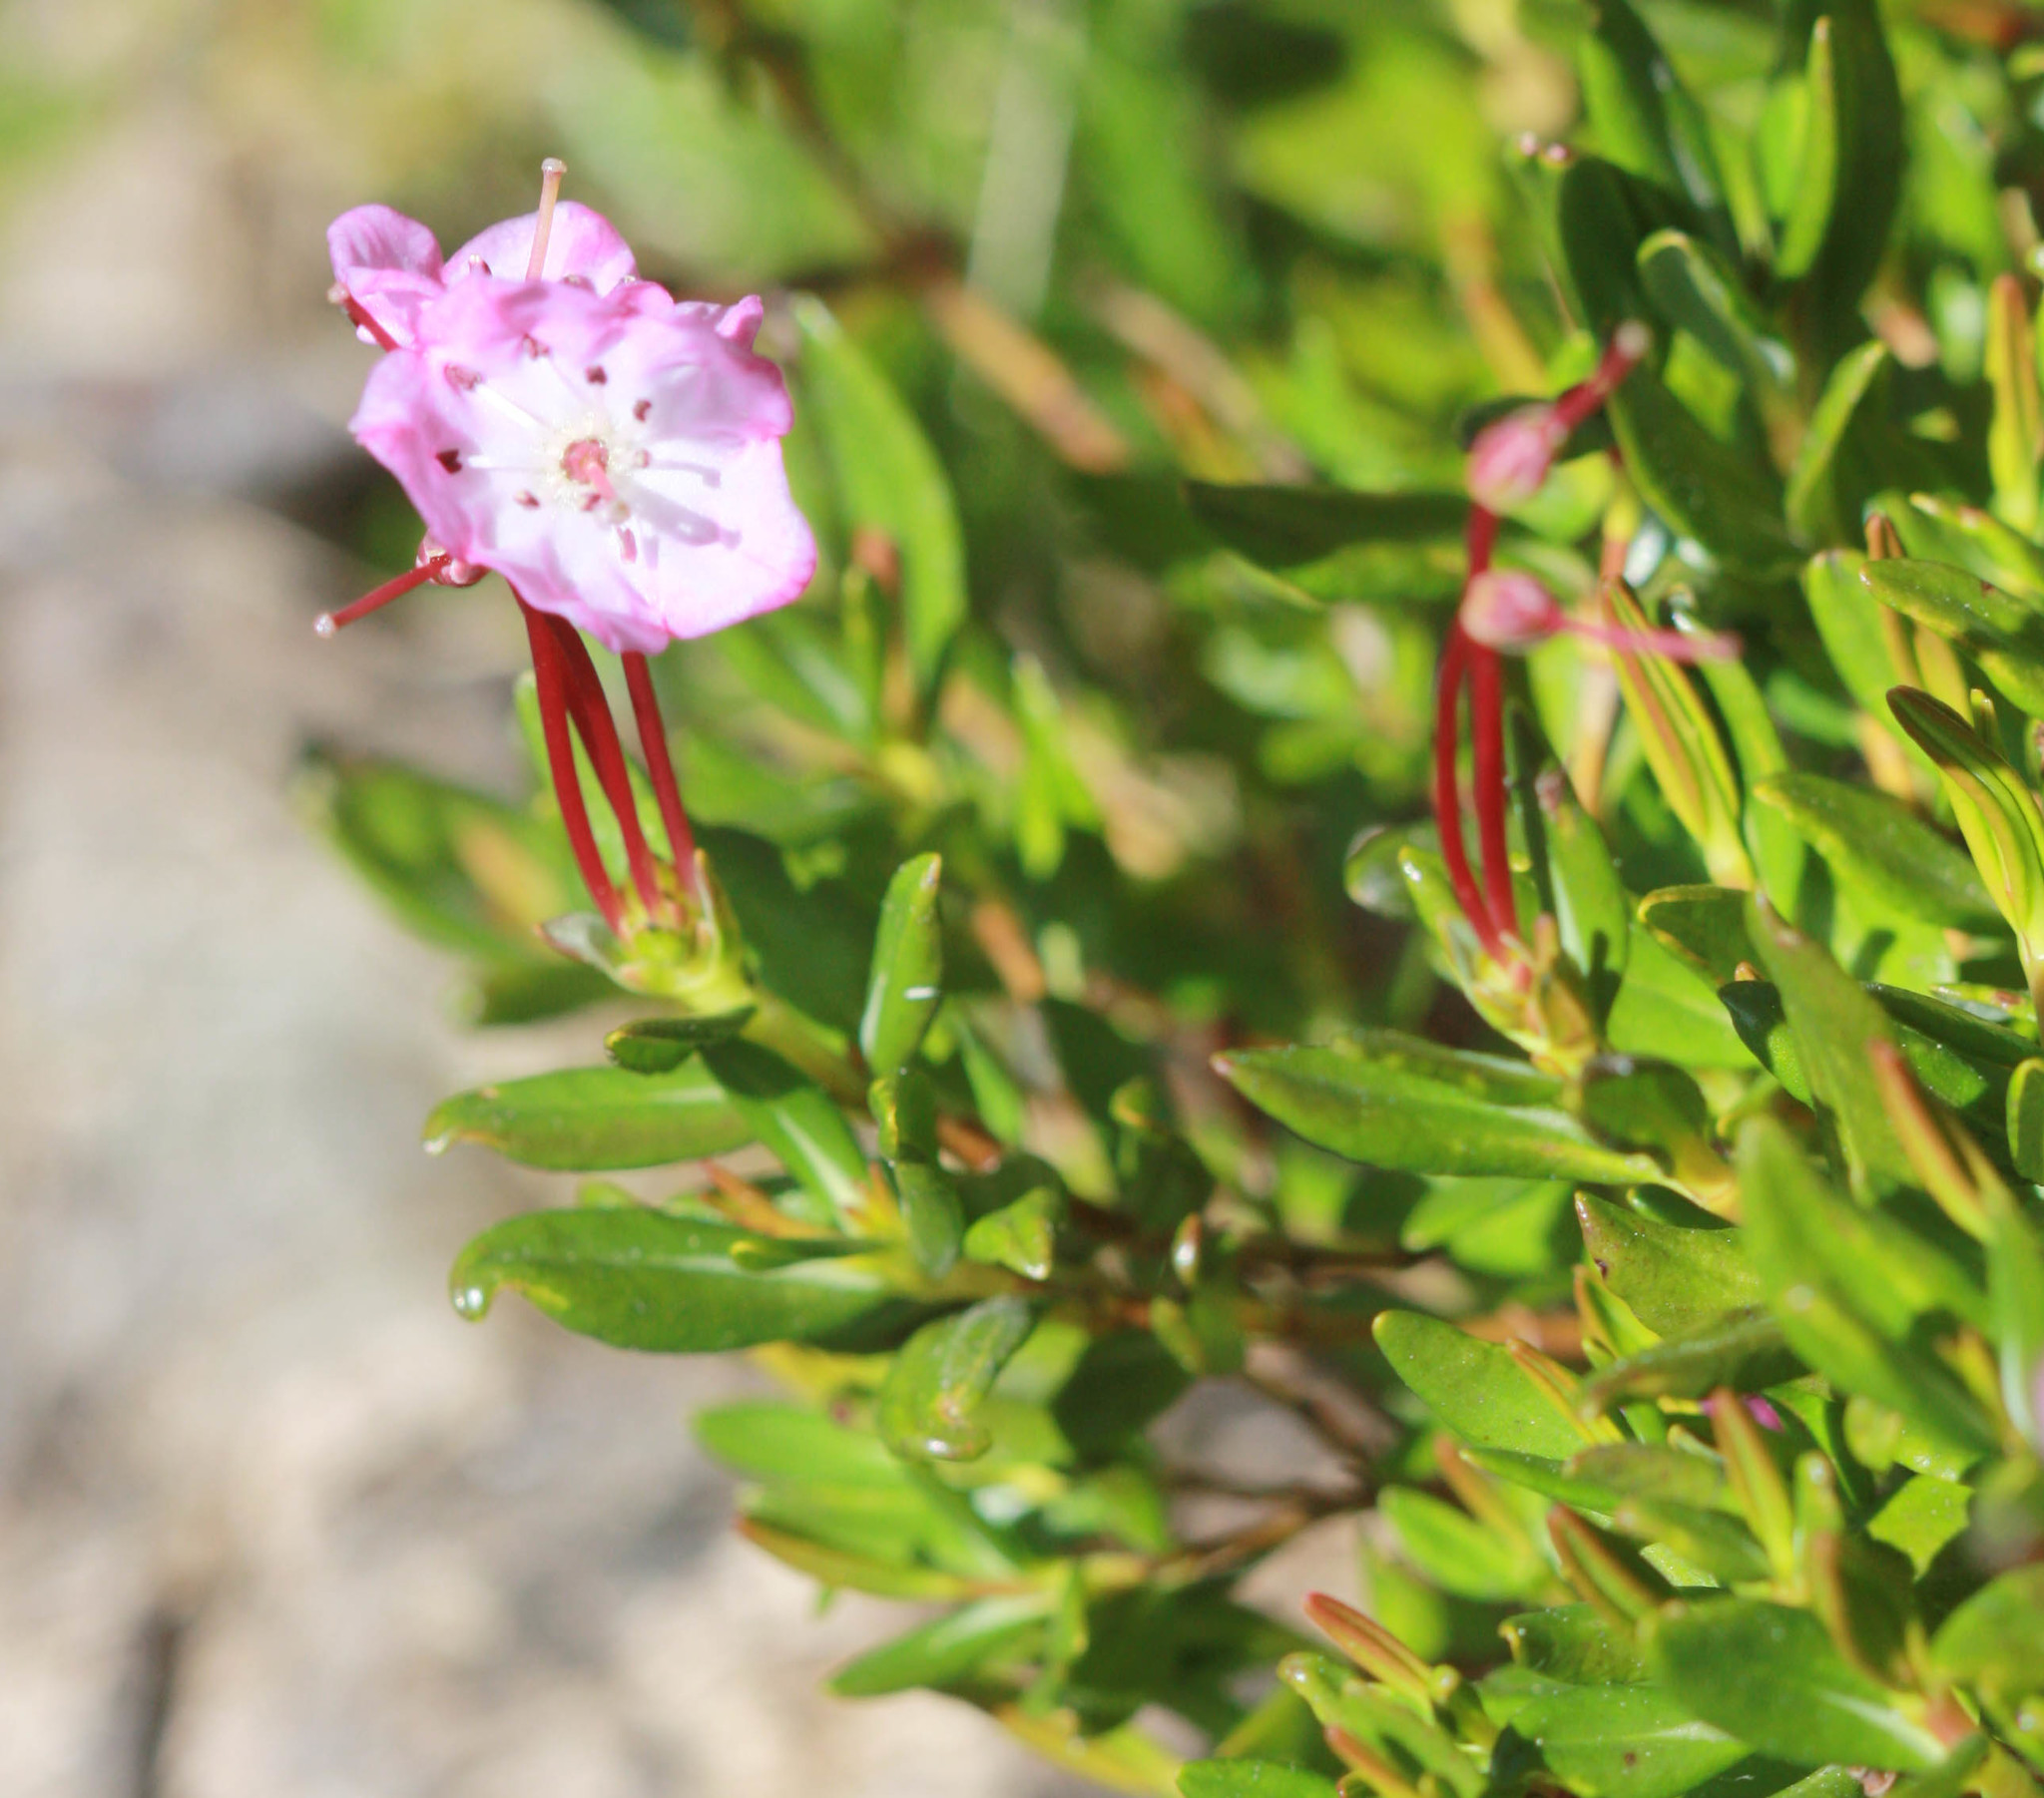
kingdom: Plantae
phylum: Tracheophyta
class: Magnoliopsida
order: Ericales
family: Ericaceae
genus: Kalmia
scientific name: Kalmia microphylla
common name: Alpine bog laurel
